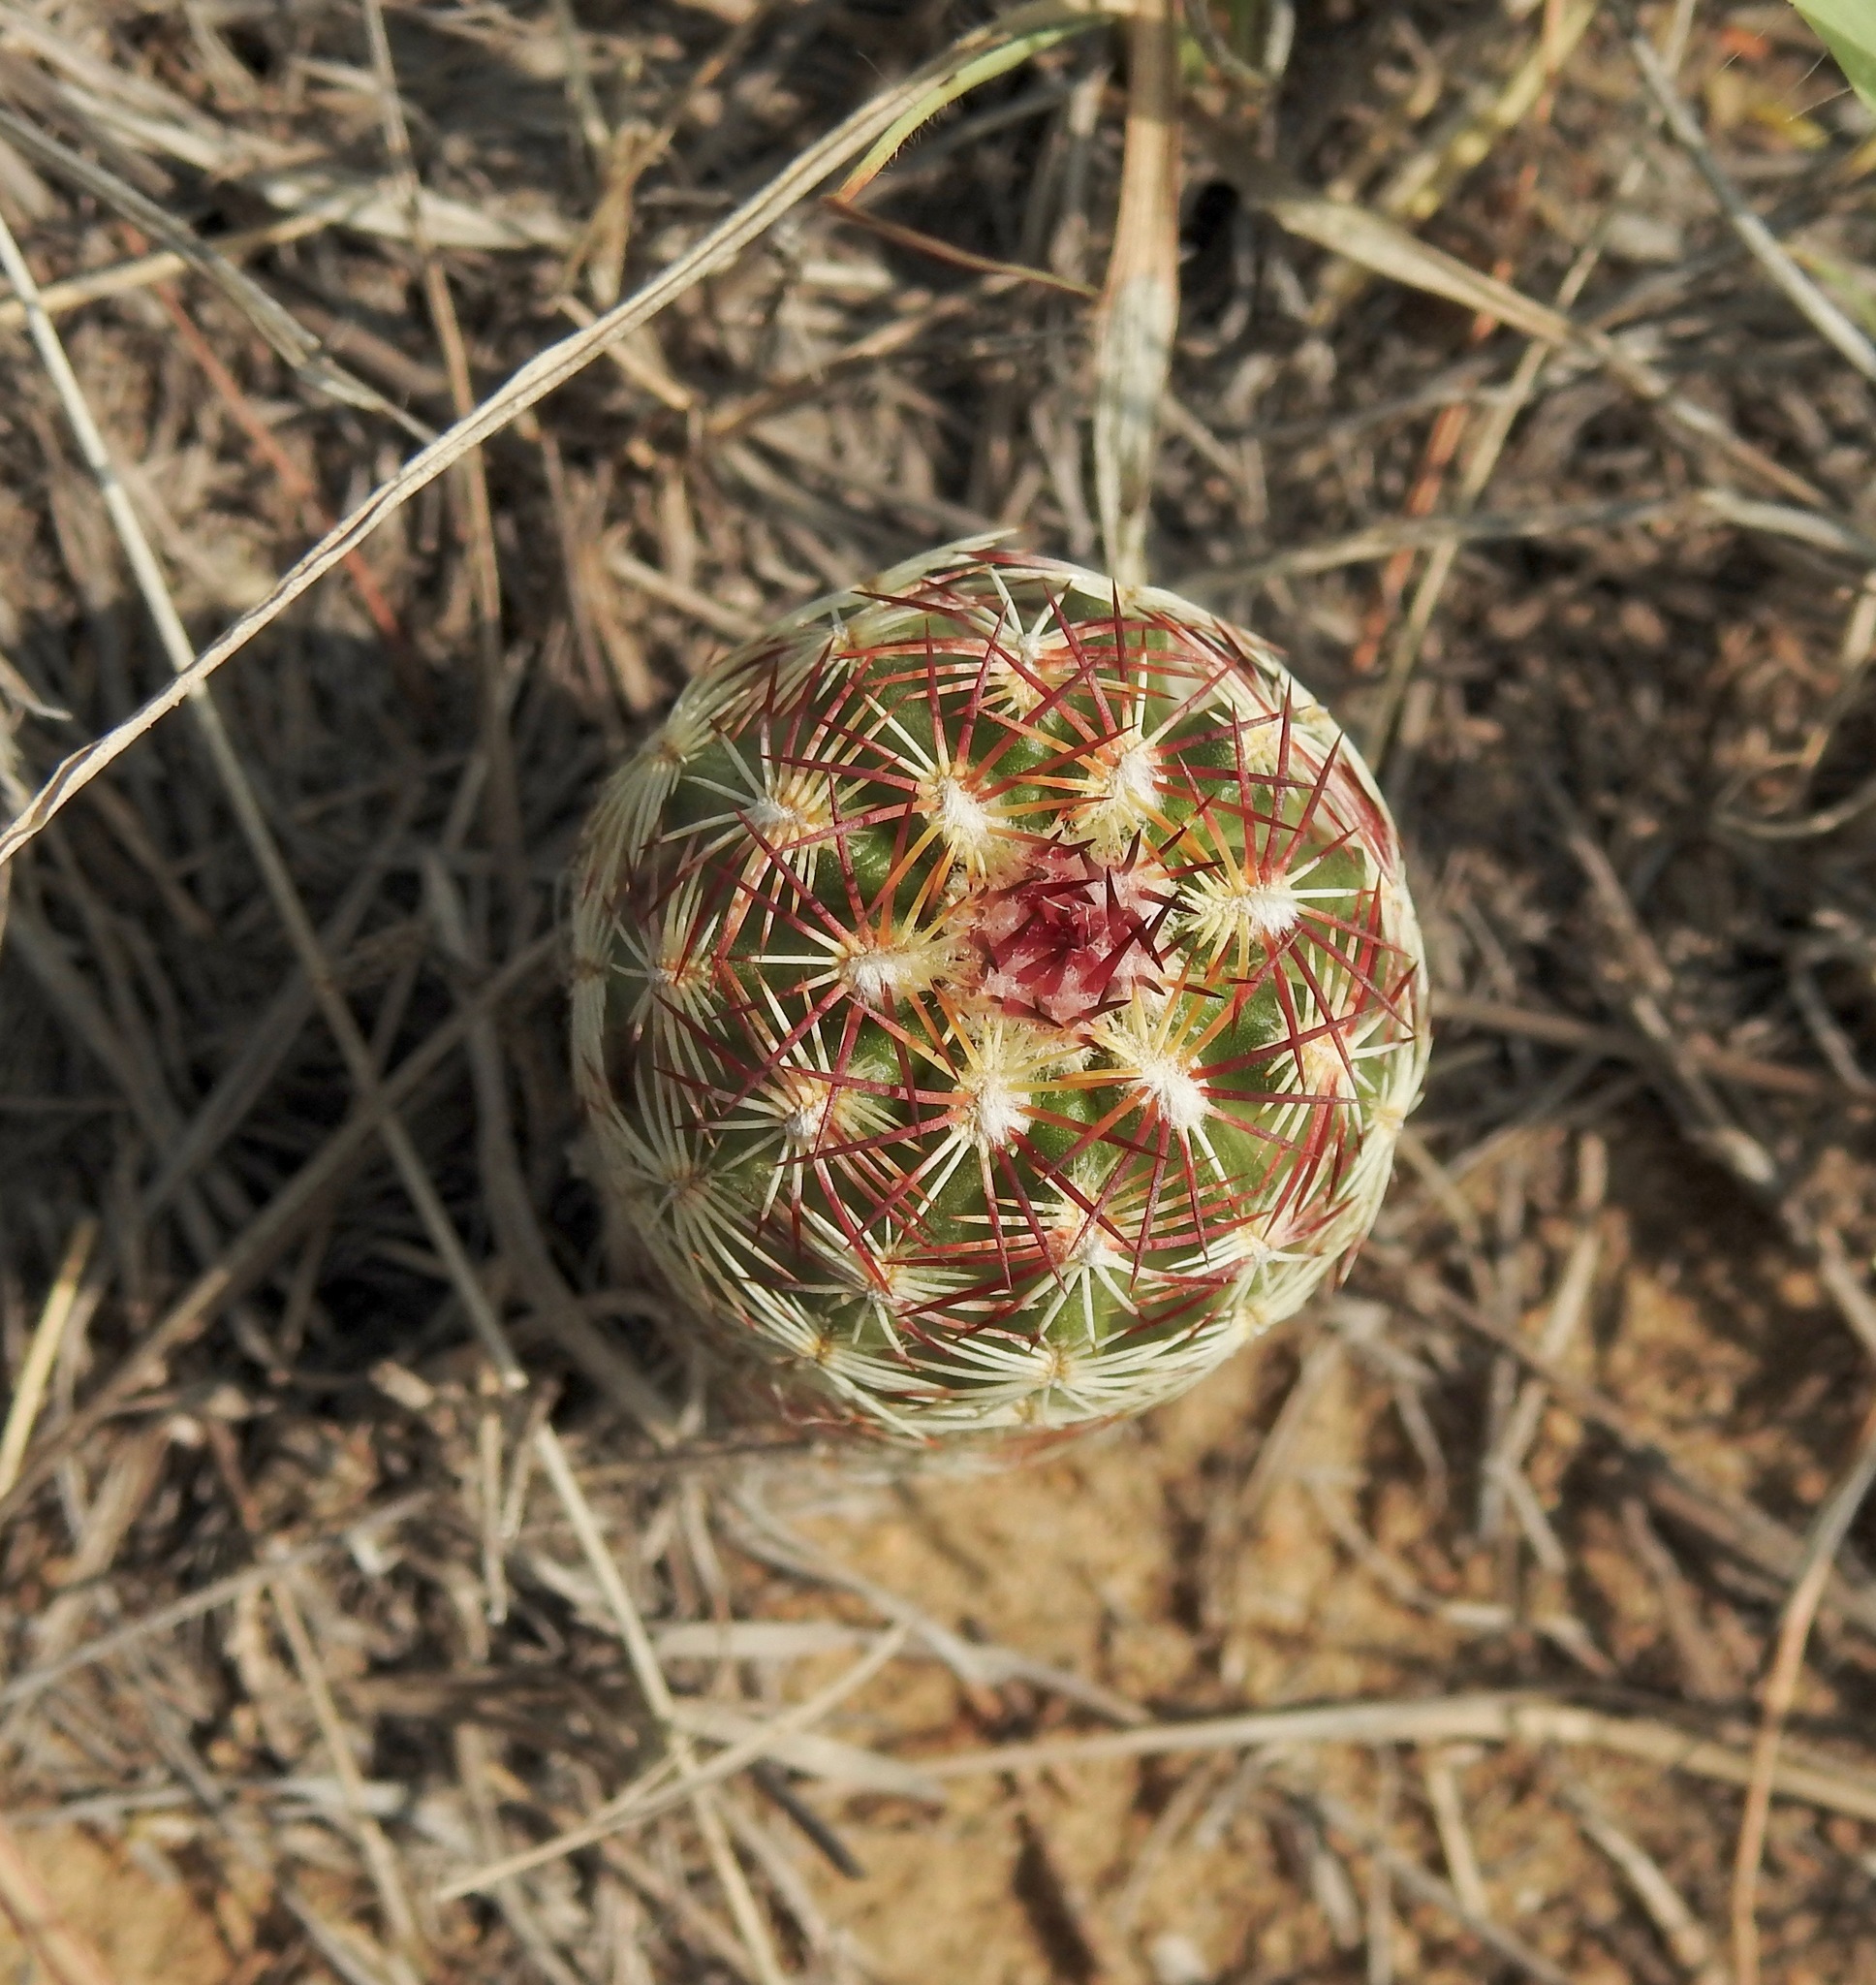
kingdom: Plantae
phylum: Tracheophyta
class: Magnoliopsida
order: Caryophyllales
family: Cactaceae
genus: Echinocereus
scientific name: Echinocereus viridiflorus
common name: Nylon hedgehog cactus
